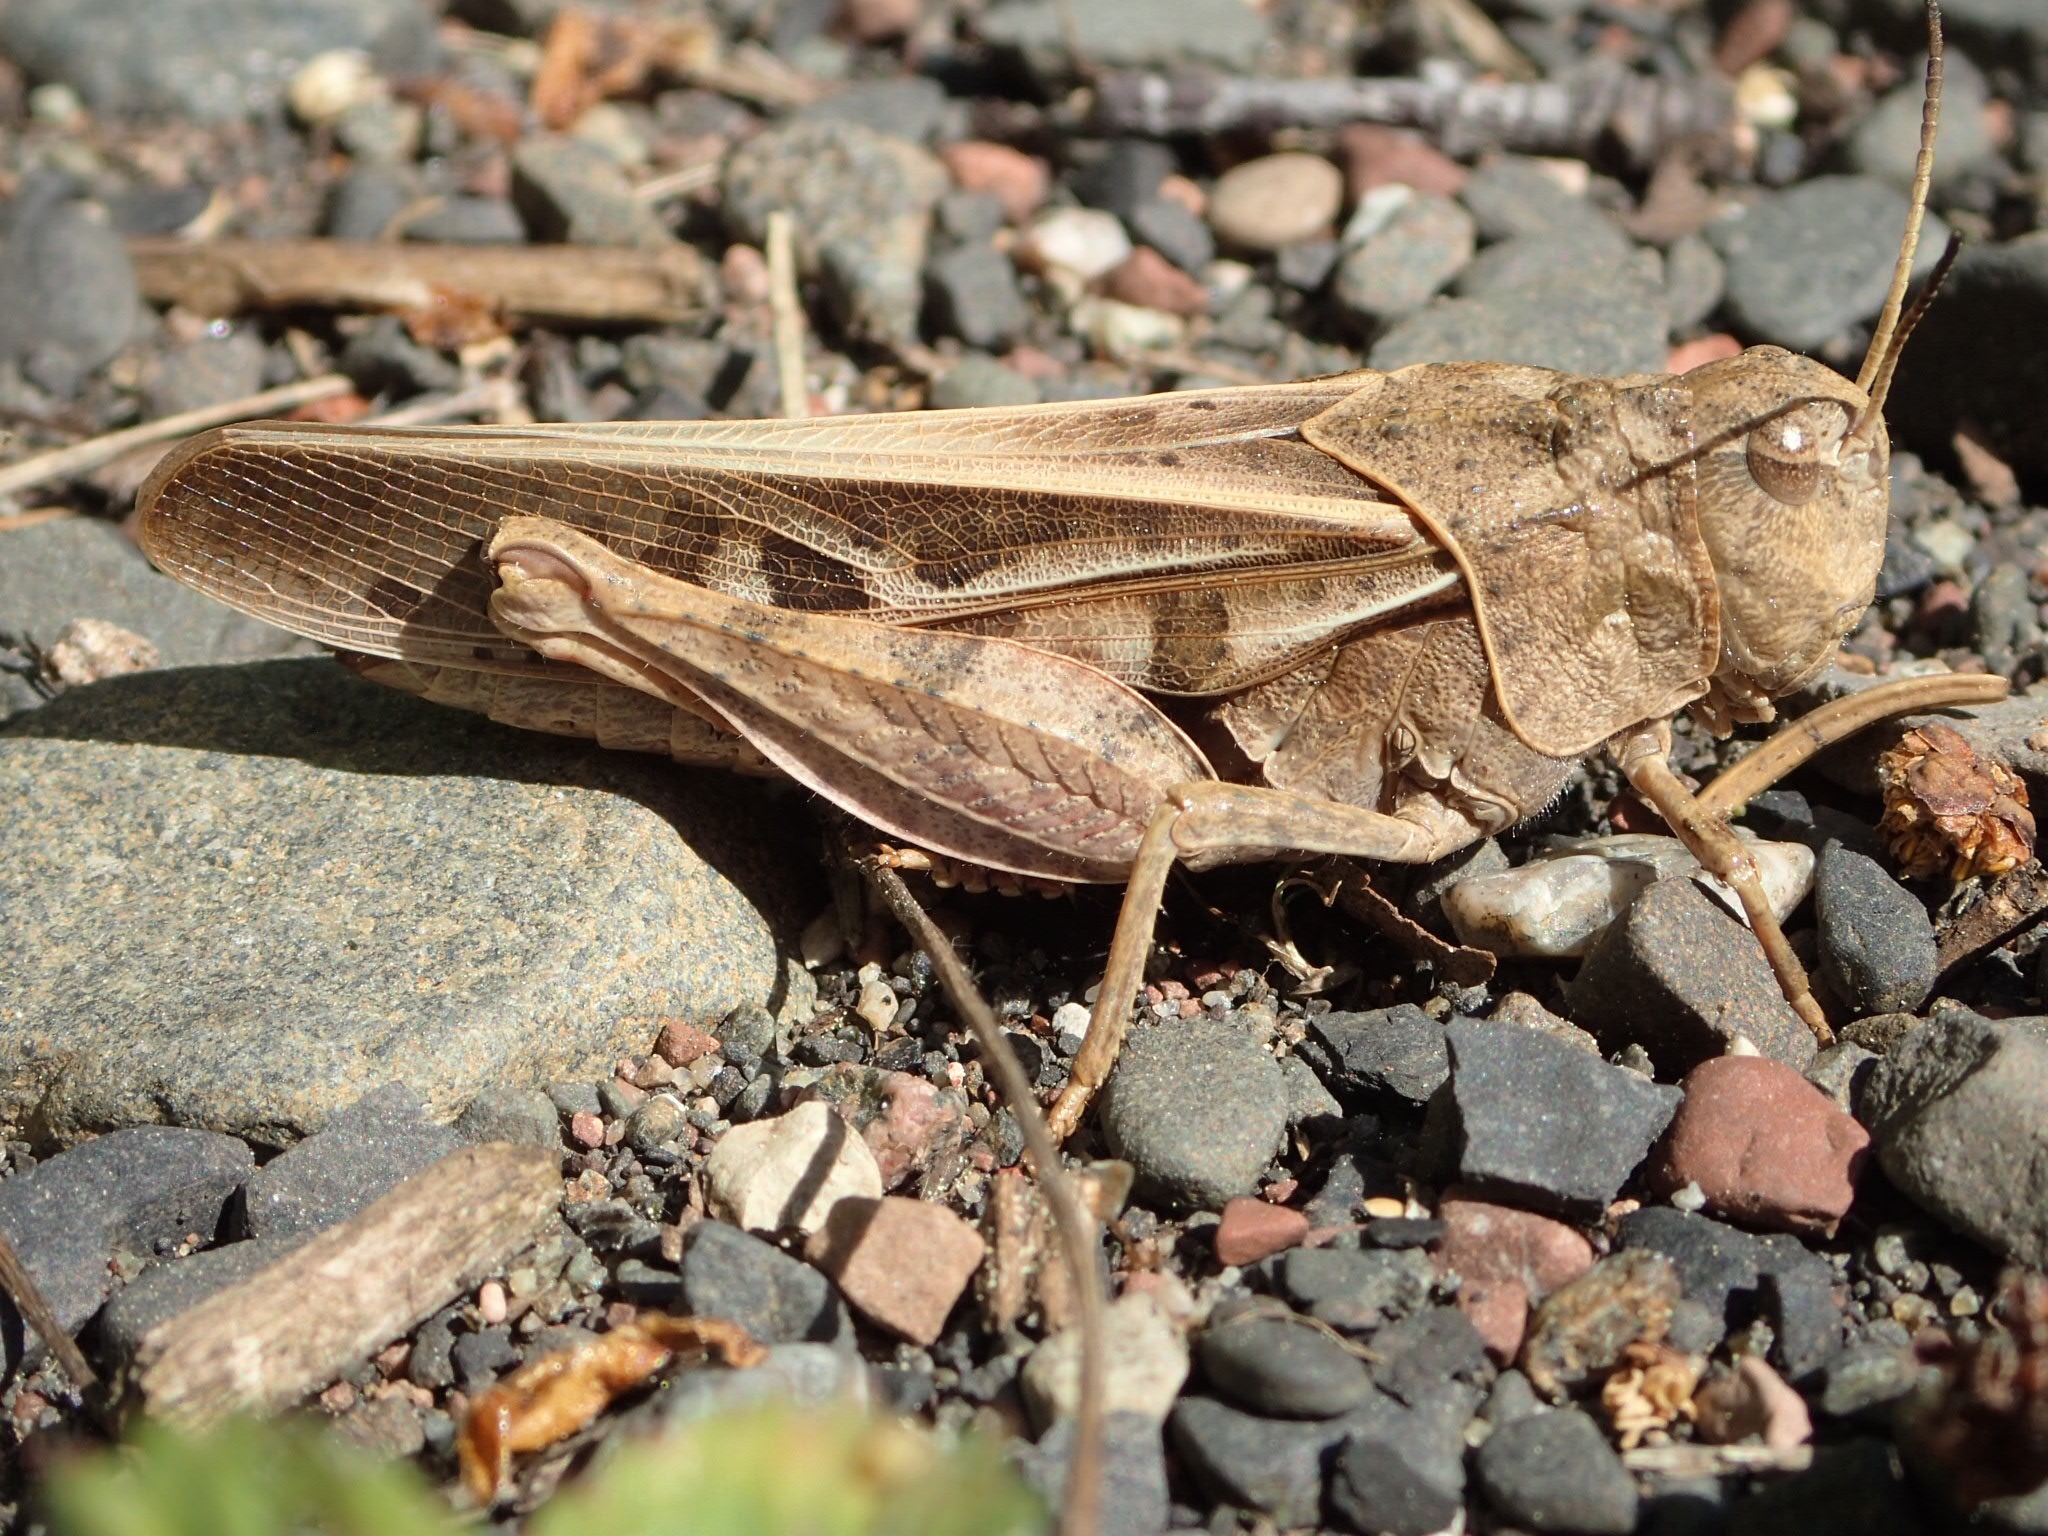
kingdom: Animalia
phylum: Arthropoda
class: Insecta
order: Orthoptera
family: Acrididae
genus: Pardalophora
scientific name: Pardalophora apiculata
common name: Coral-winged locust
